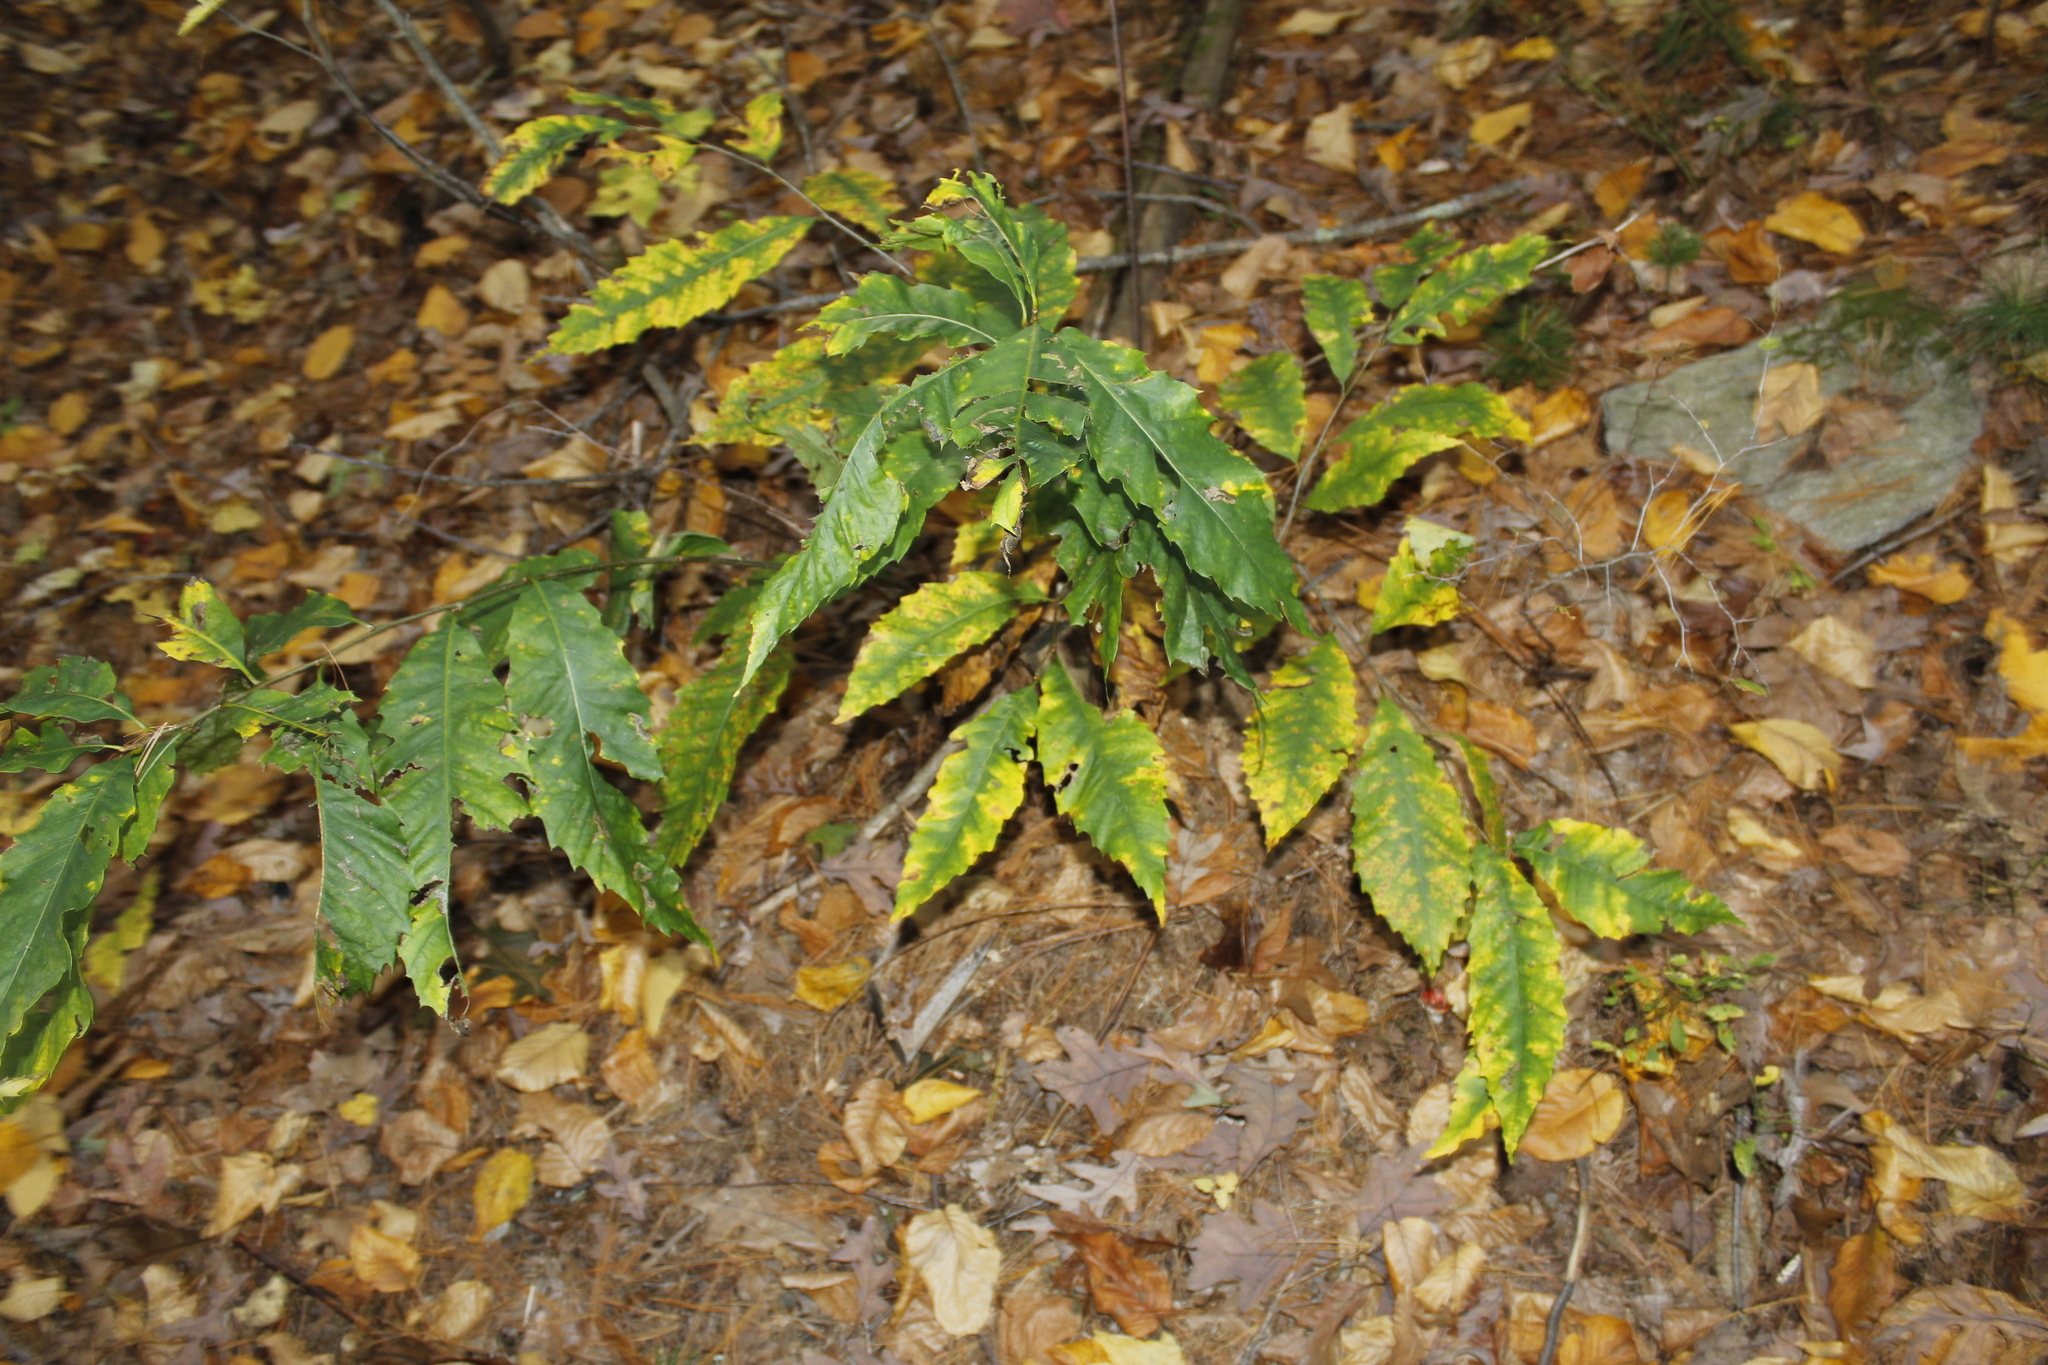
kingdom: Plantae
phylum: Tracheophyta
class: Magnoliopsida
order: Fagales
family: Fagaceae
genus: Castanea
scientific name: Castanea dentata
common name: American chestnut
